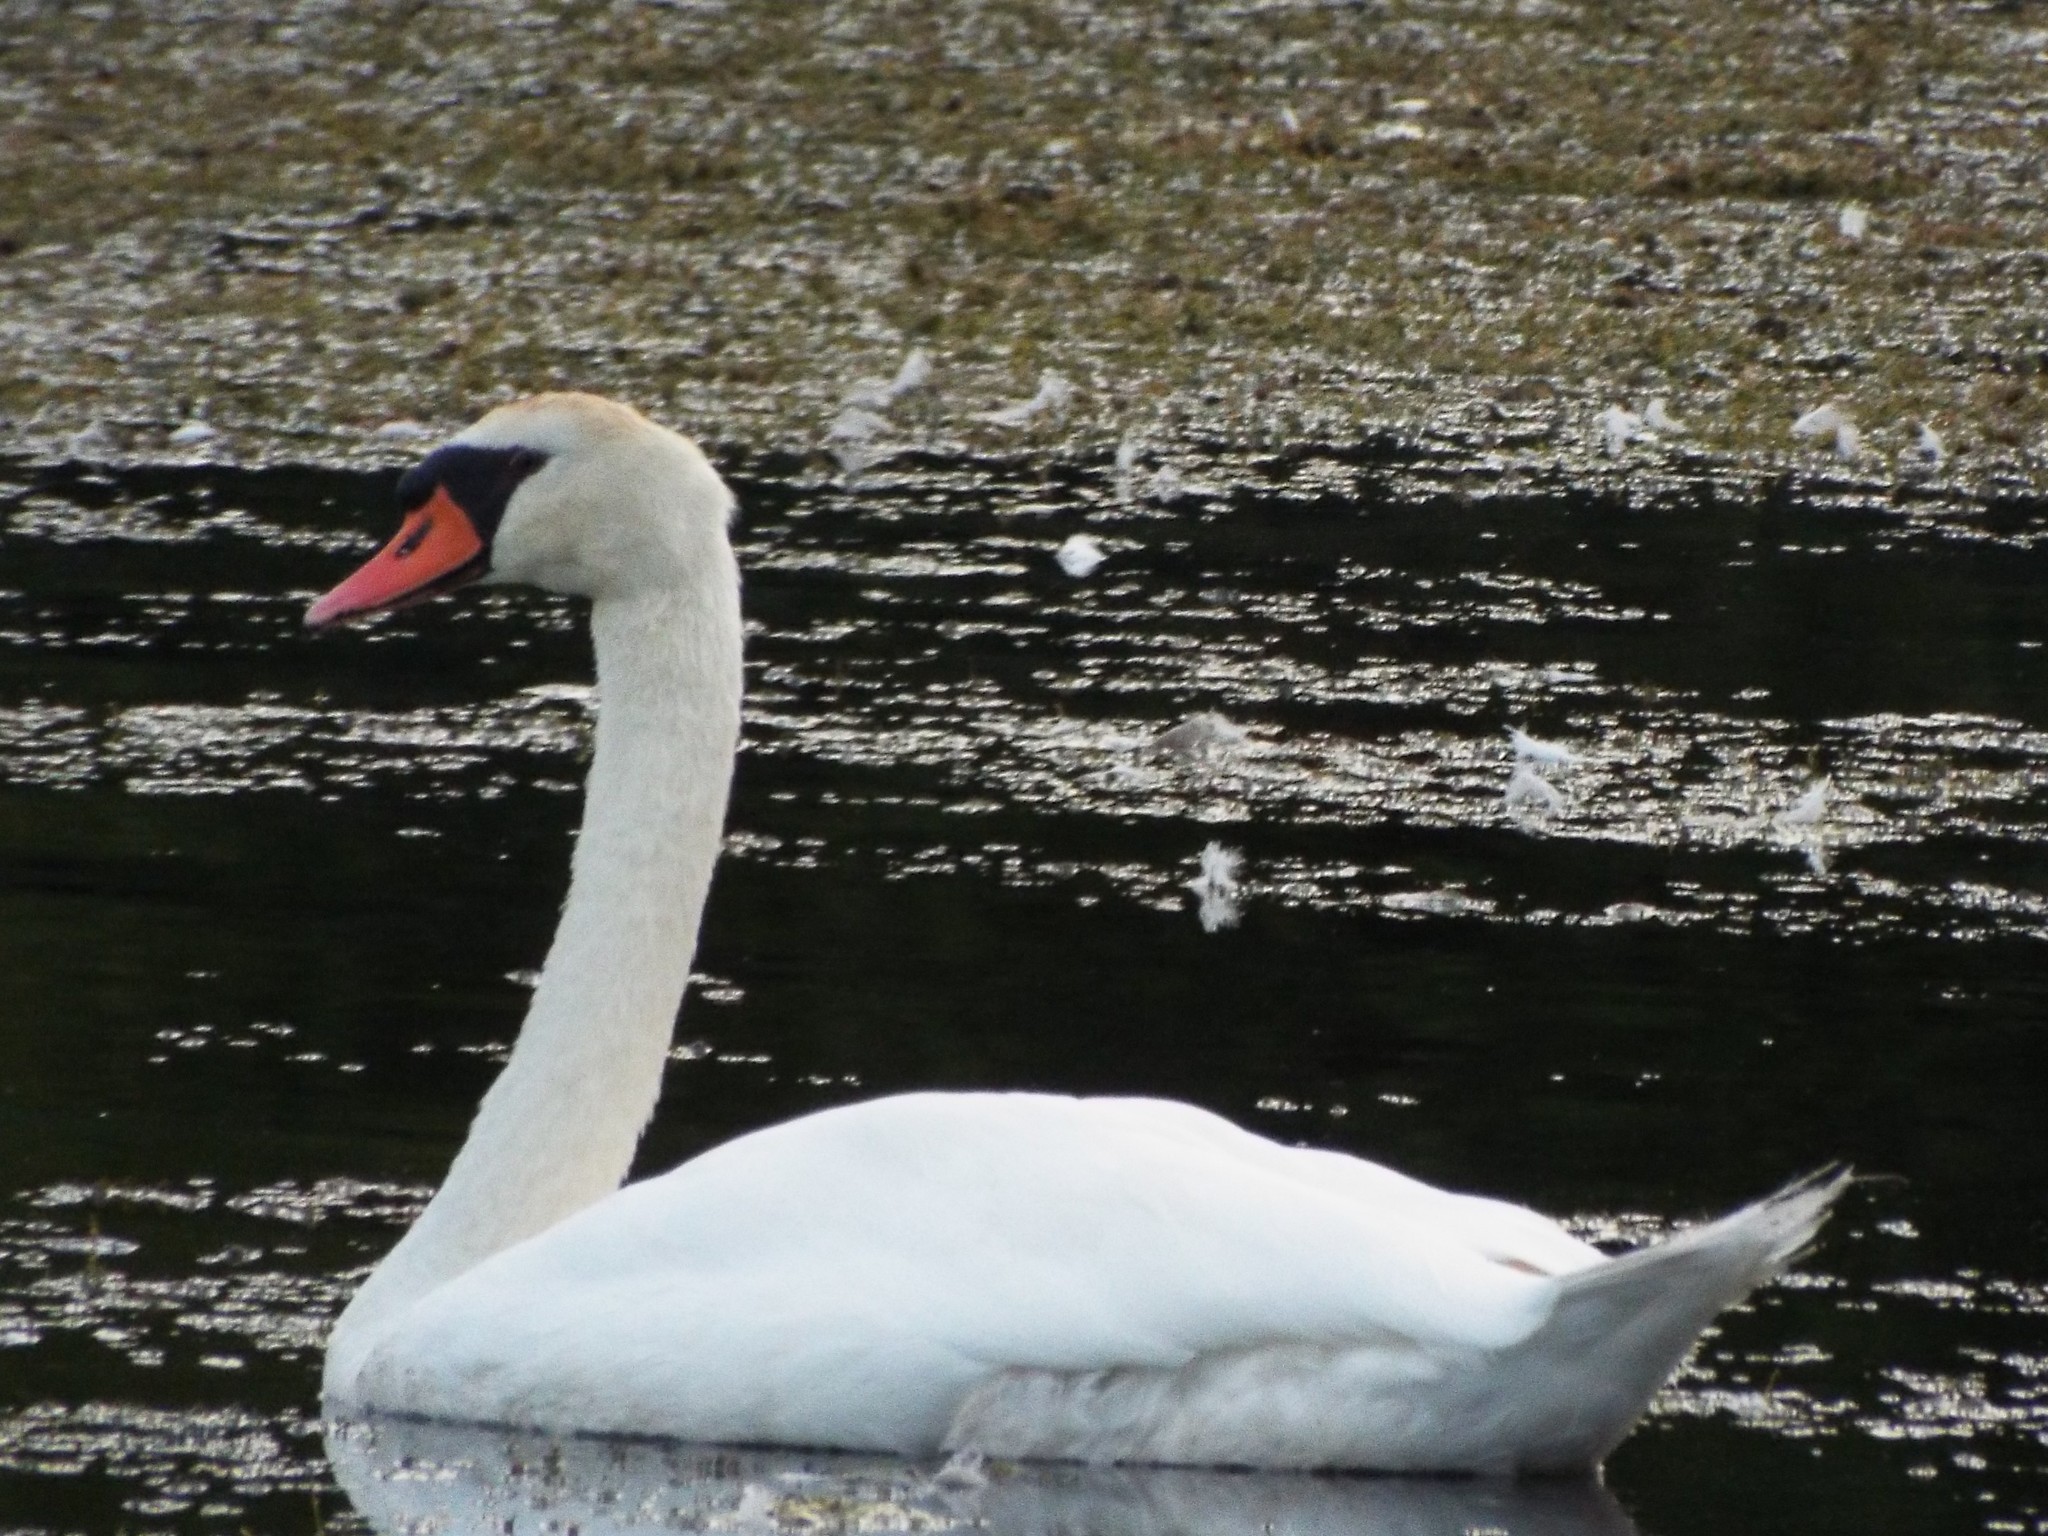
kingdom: Animalia
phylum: Chordata
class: Aves
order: Anseriformes
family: Anatidae
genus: Cygnus
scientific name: Cygnus olor
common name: Mute swan
